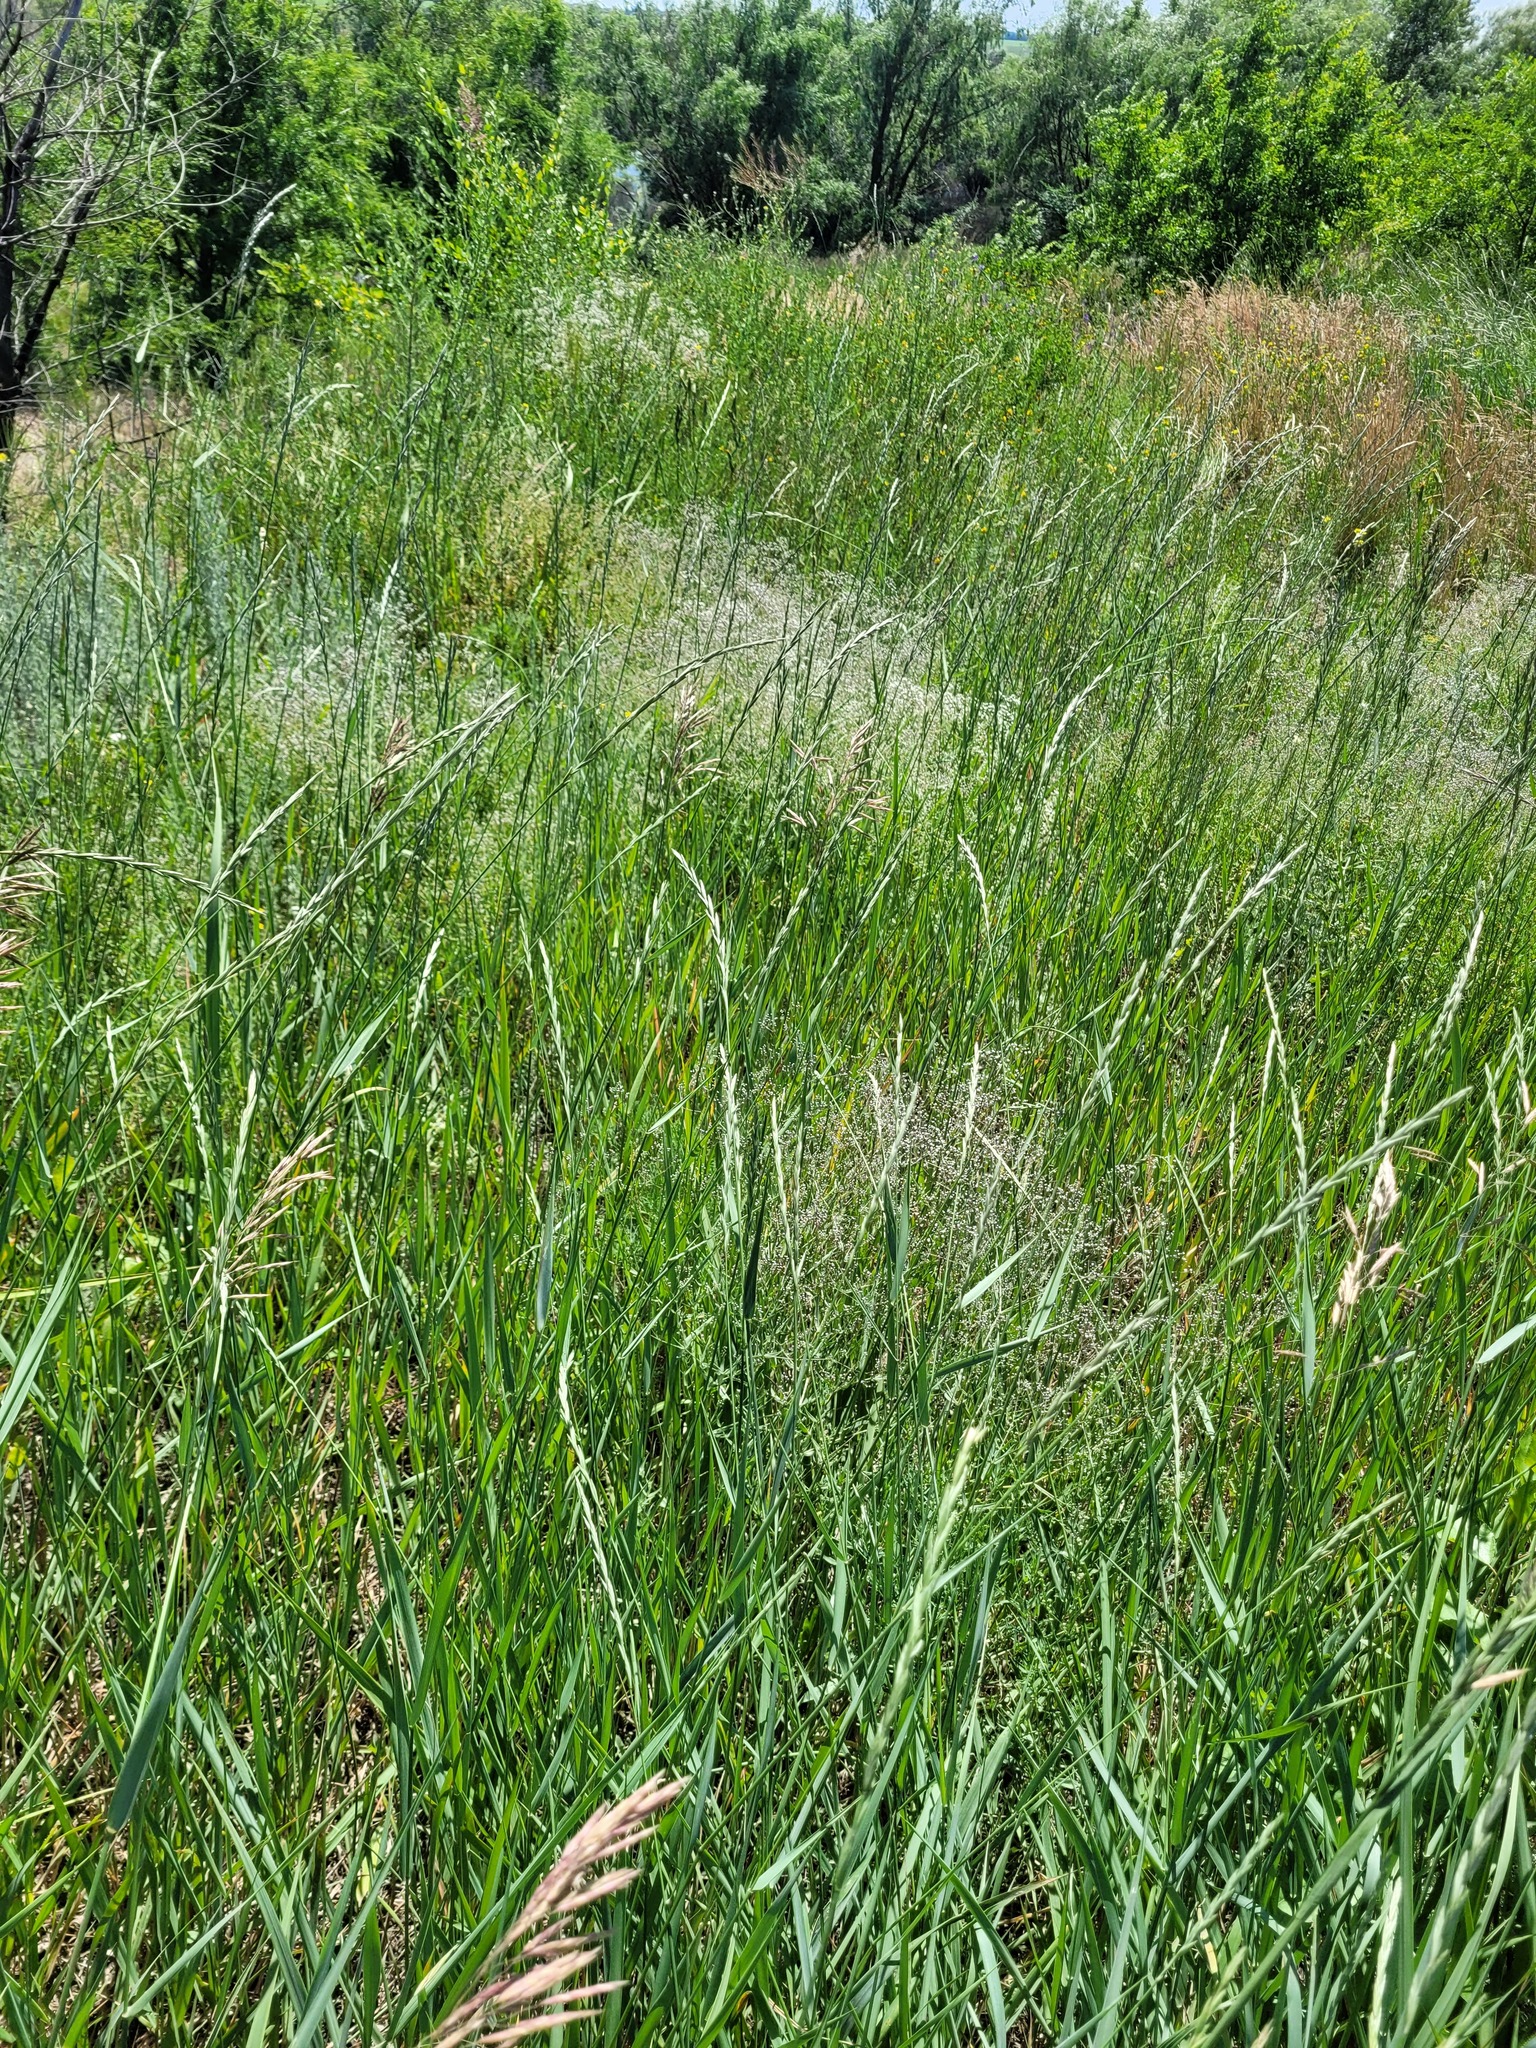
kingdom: Plantae
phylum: Tracheophyta
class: Liliopsida
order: Poales
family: Poaceae
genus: Elymus
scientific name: Elymus repens
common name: Quackgrass
